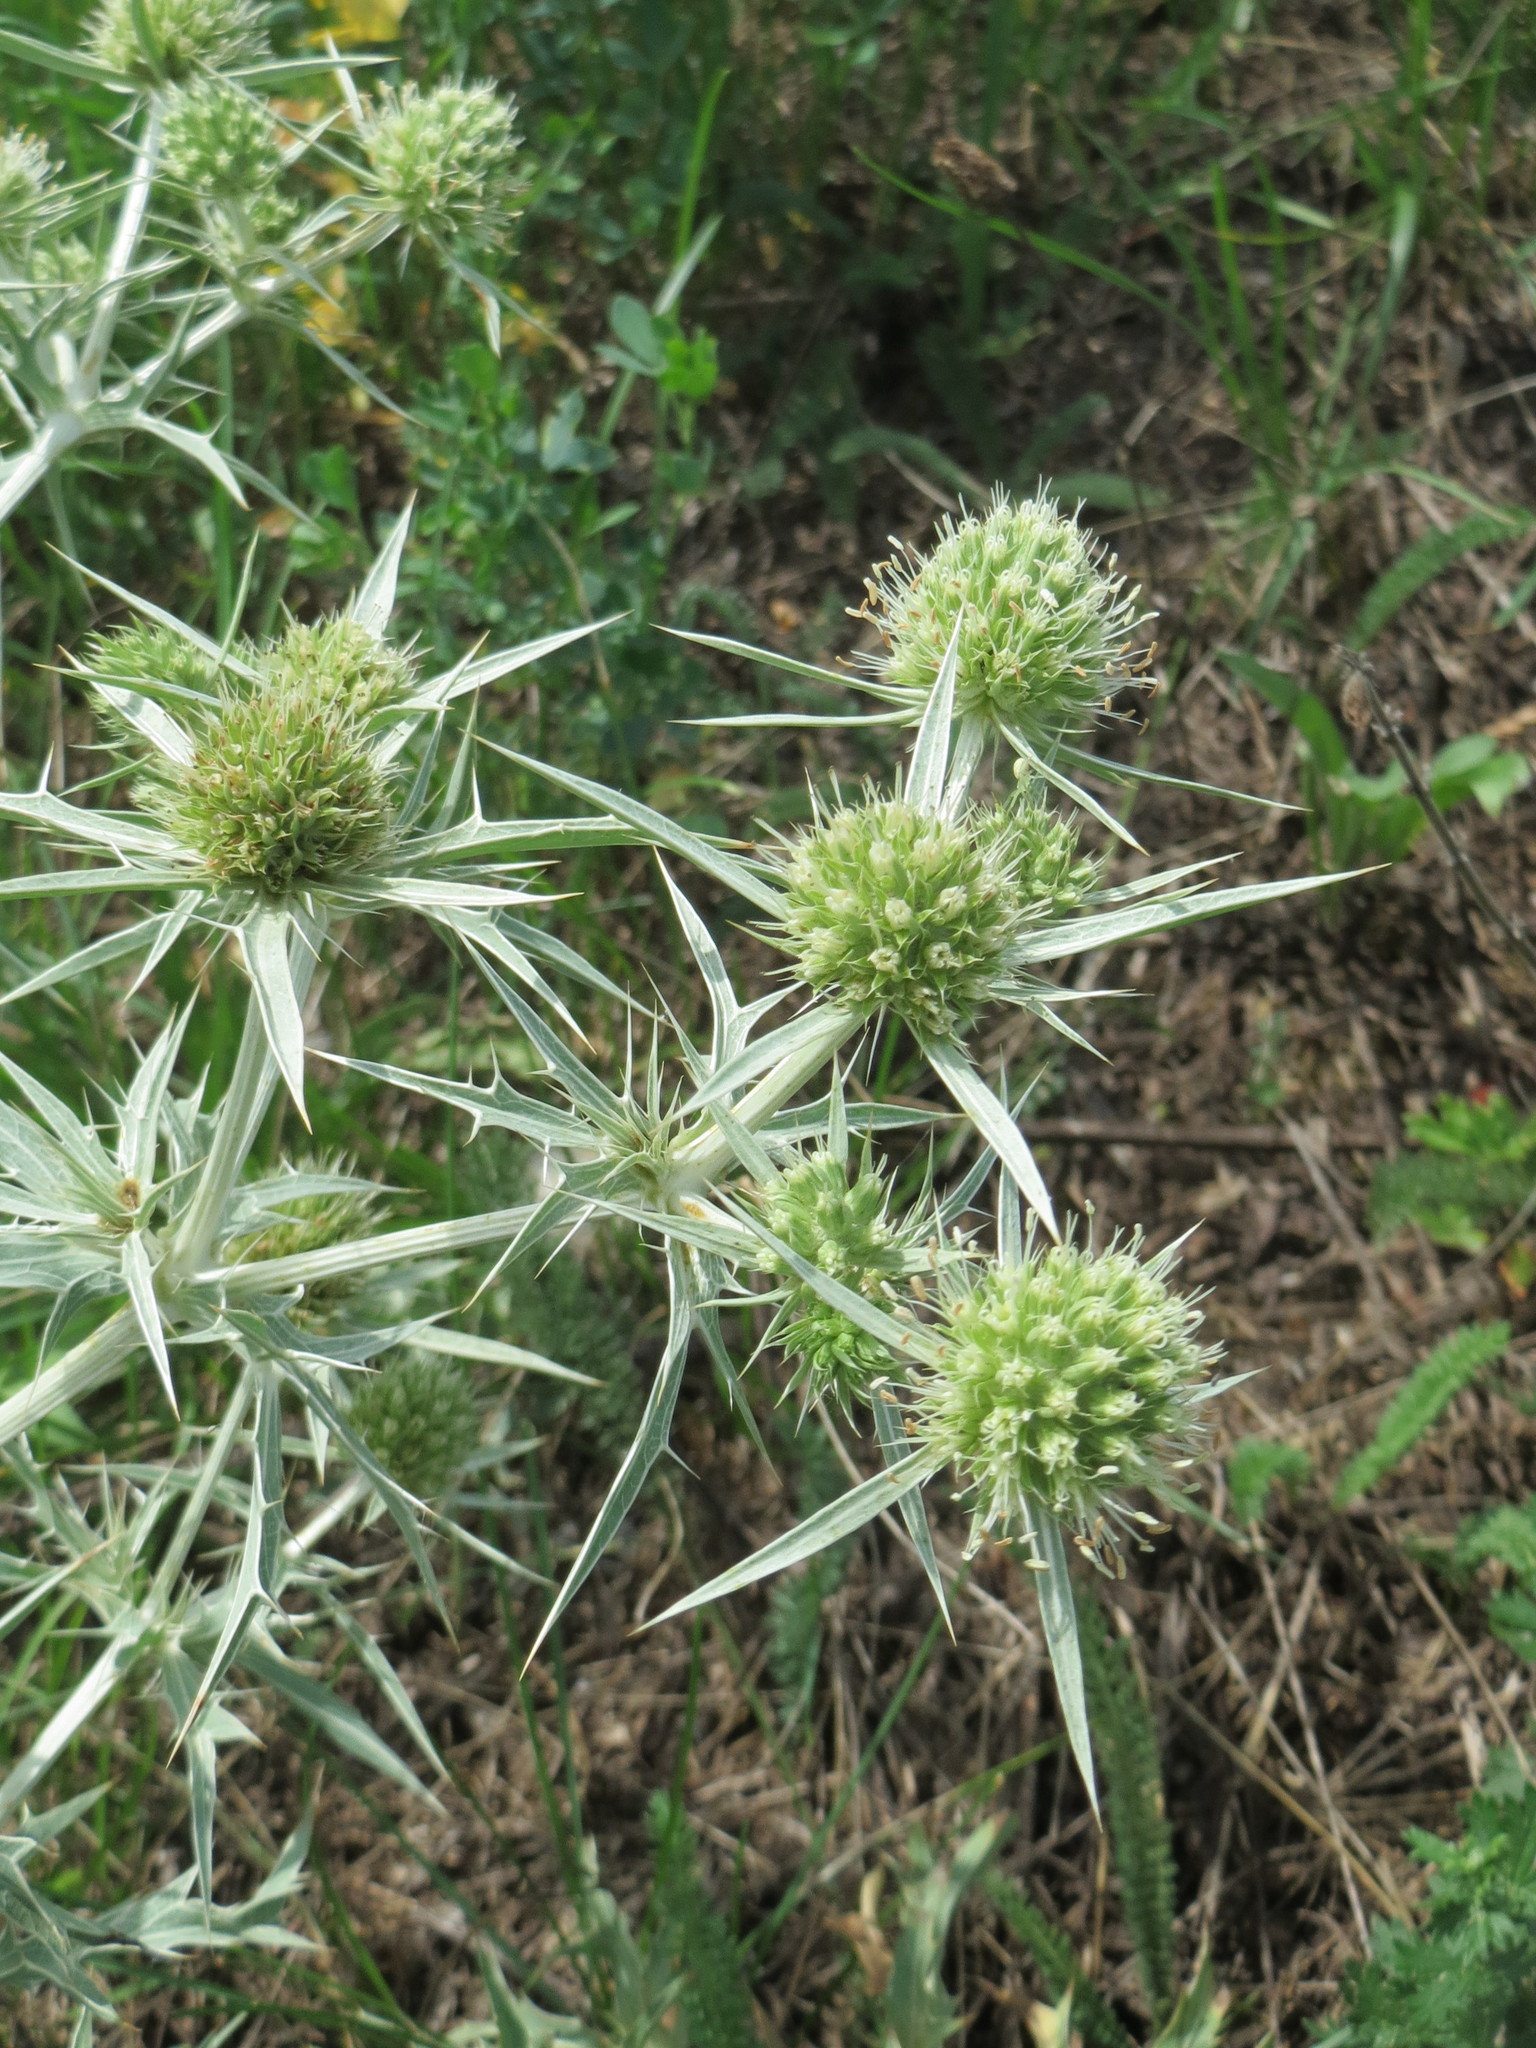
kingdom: Plantae
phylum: Tracheophyta
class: Magnoliopsida
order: Apiales
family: Apiaceae
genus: Eryngium
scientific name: Eryngium campestre
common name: Field eryngo
